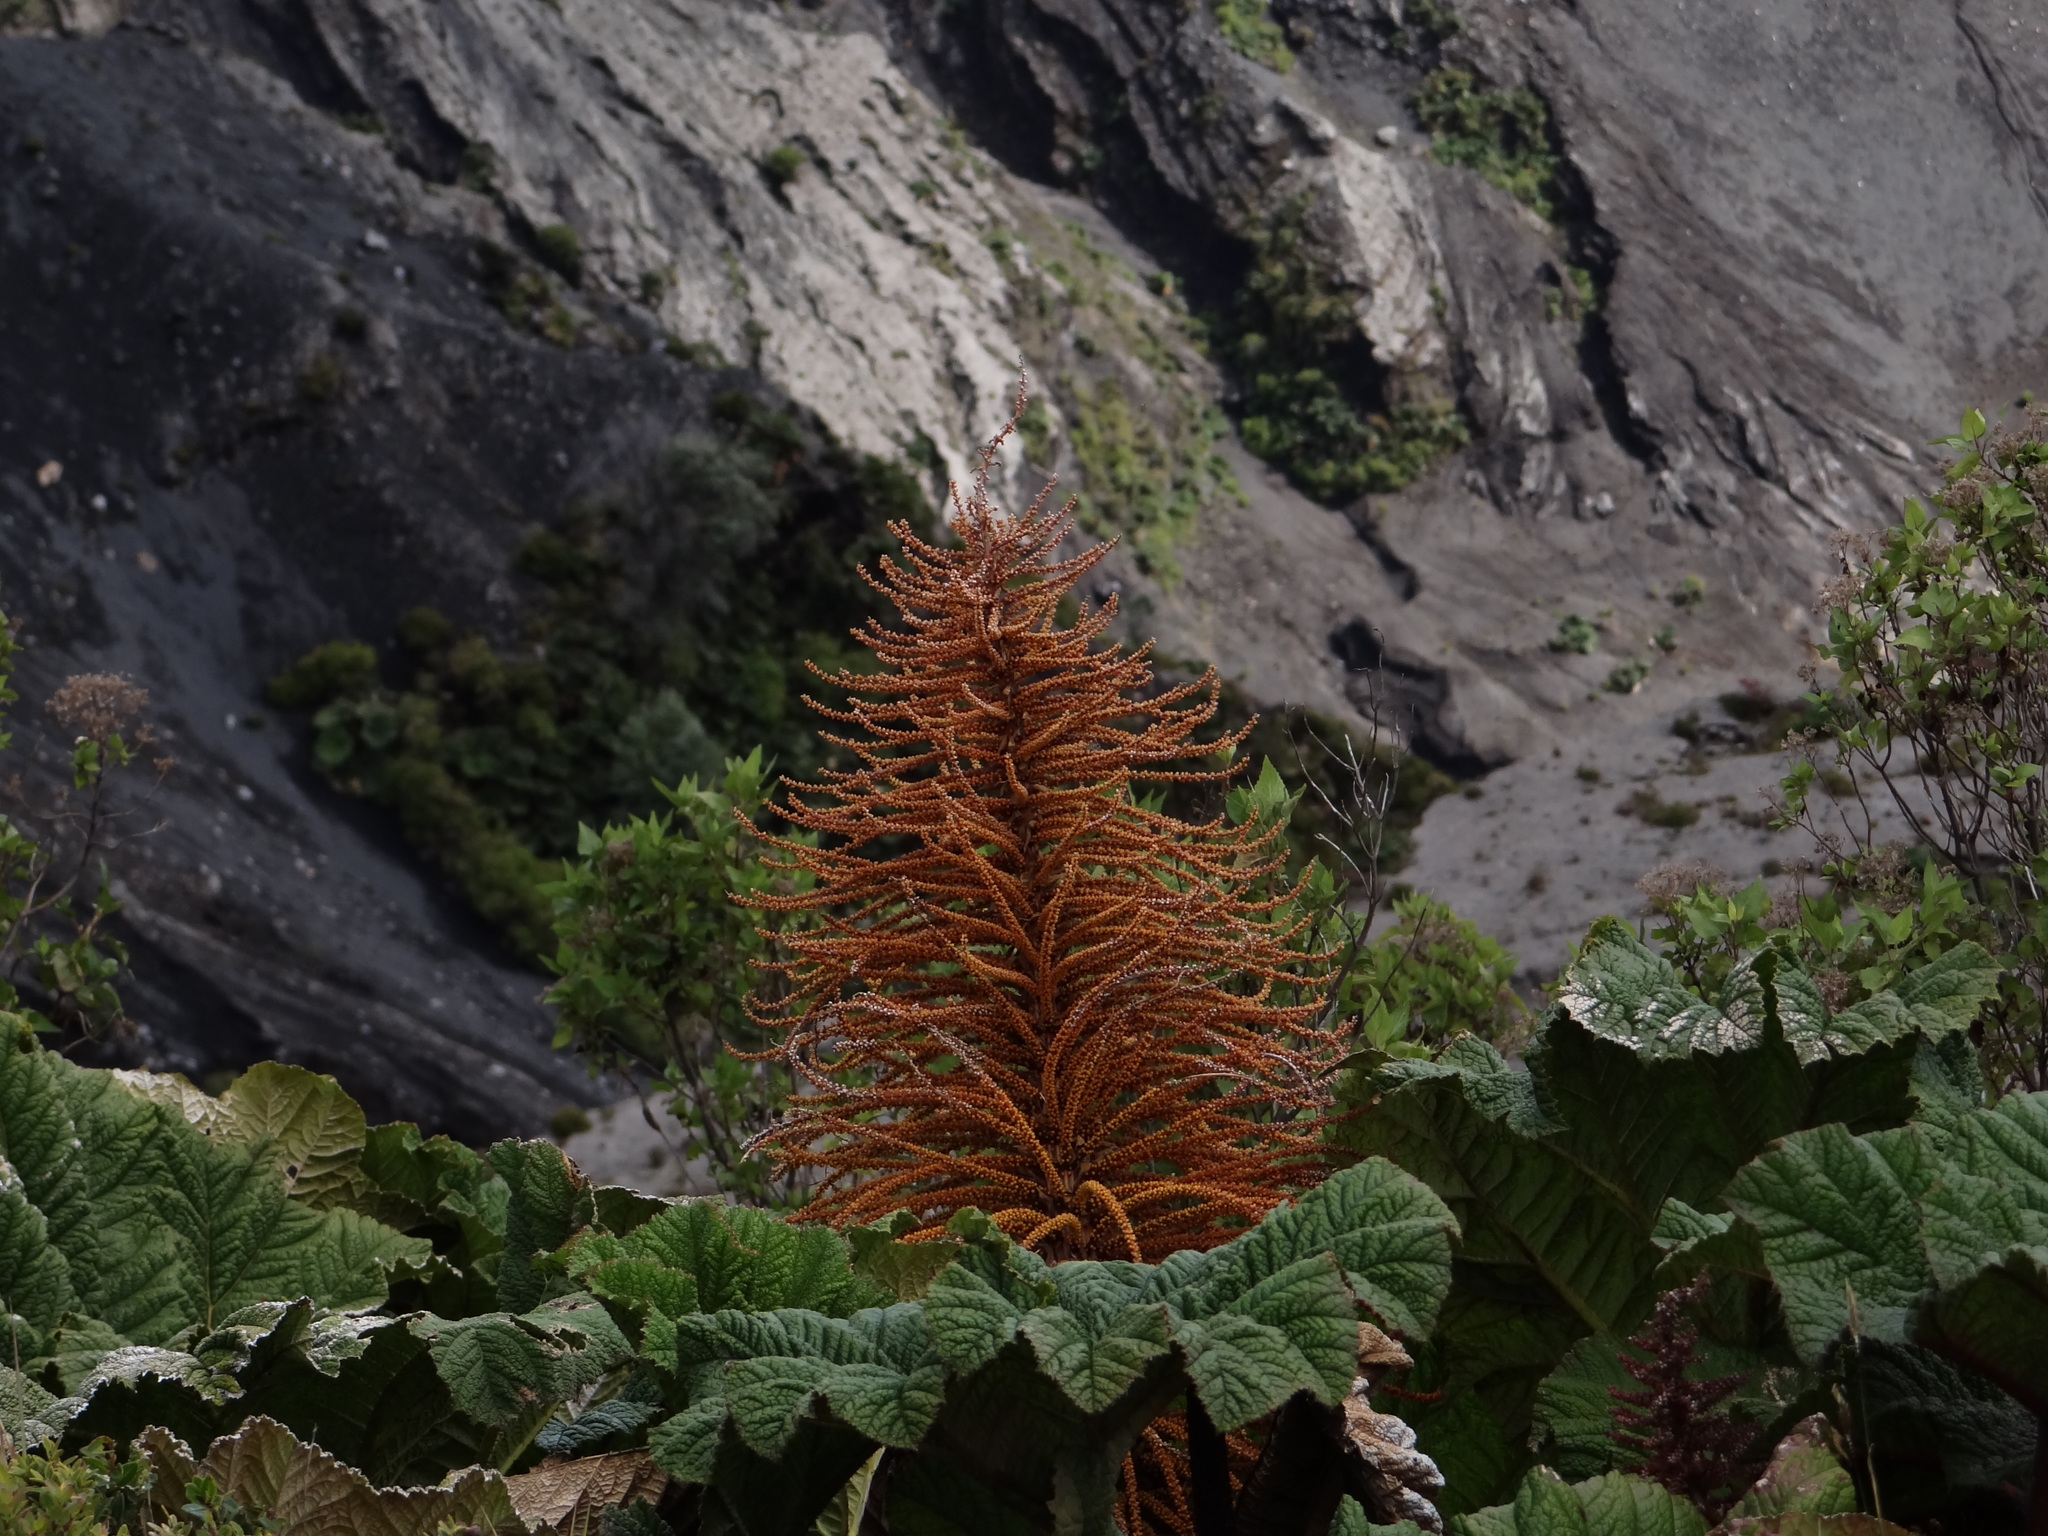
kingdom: Plantae
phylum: Tracheophyta
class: Magnoliopsida
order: Gunnerales
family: Gunneraceae
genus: Gunnera
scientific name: Gunnera insignis
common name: Poorman's umbrella
